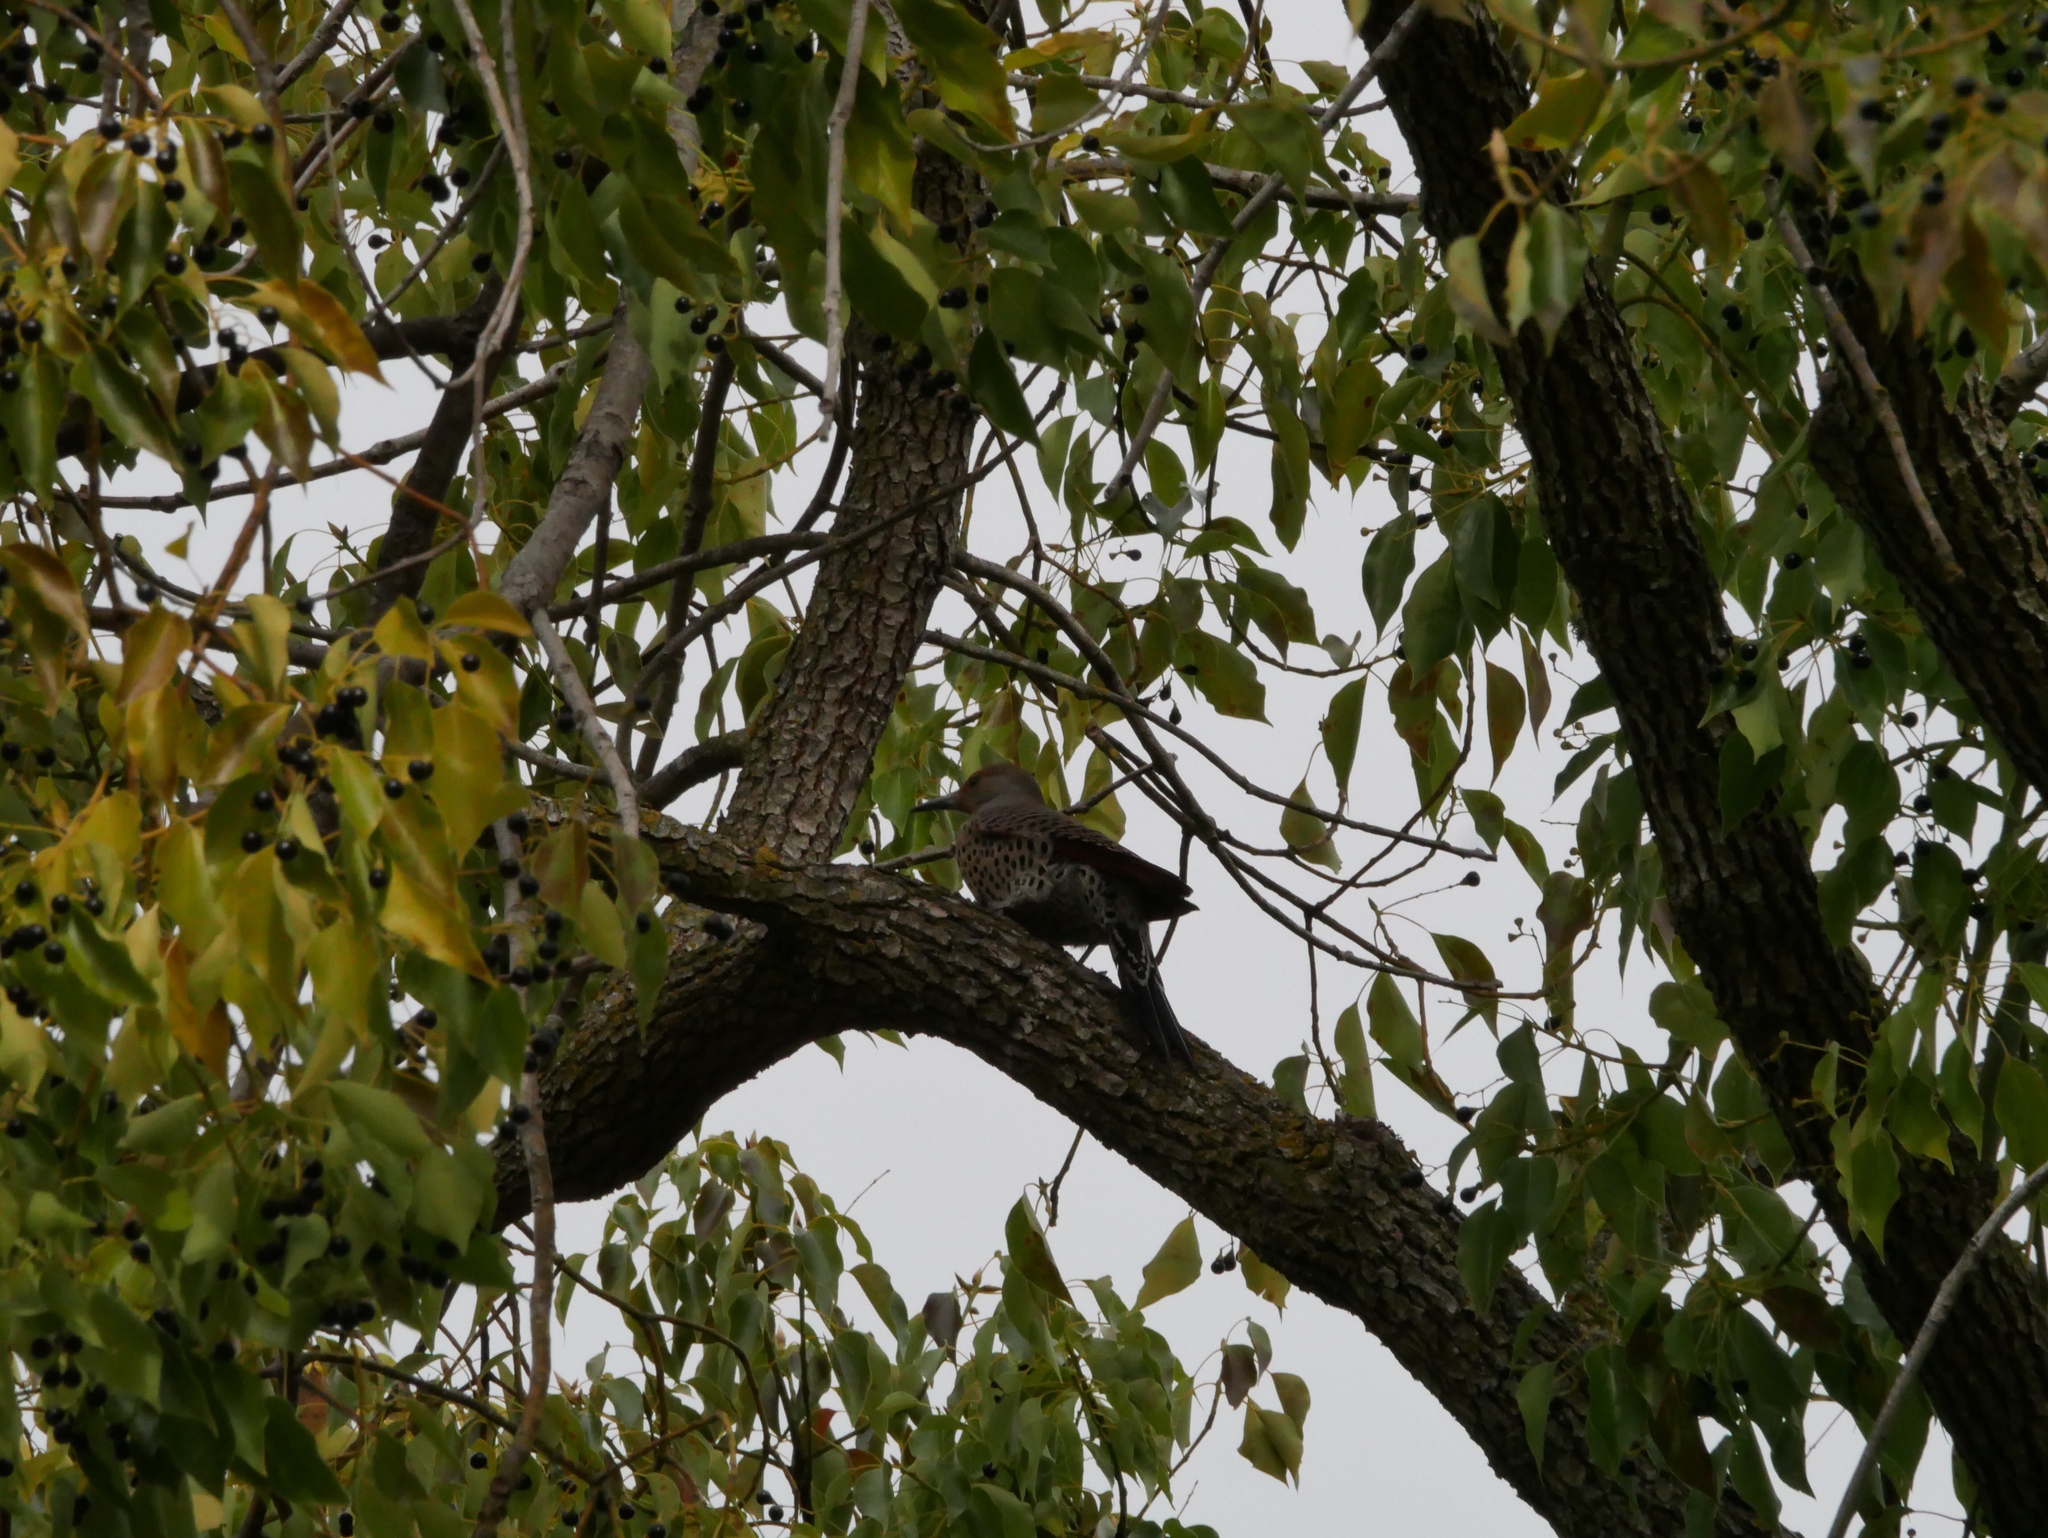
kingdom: Animalia
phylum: Chordata
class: Aves
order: Piciformes
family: Picidae
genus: Colaptes
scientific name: Colaptes auratus
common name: Northern flicker
